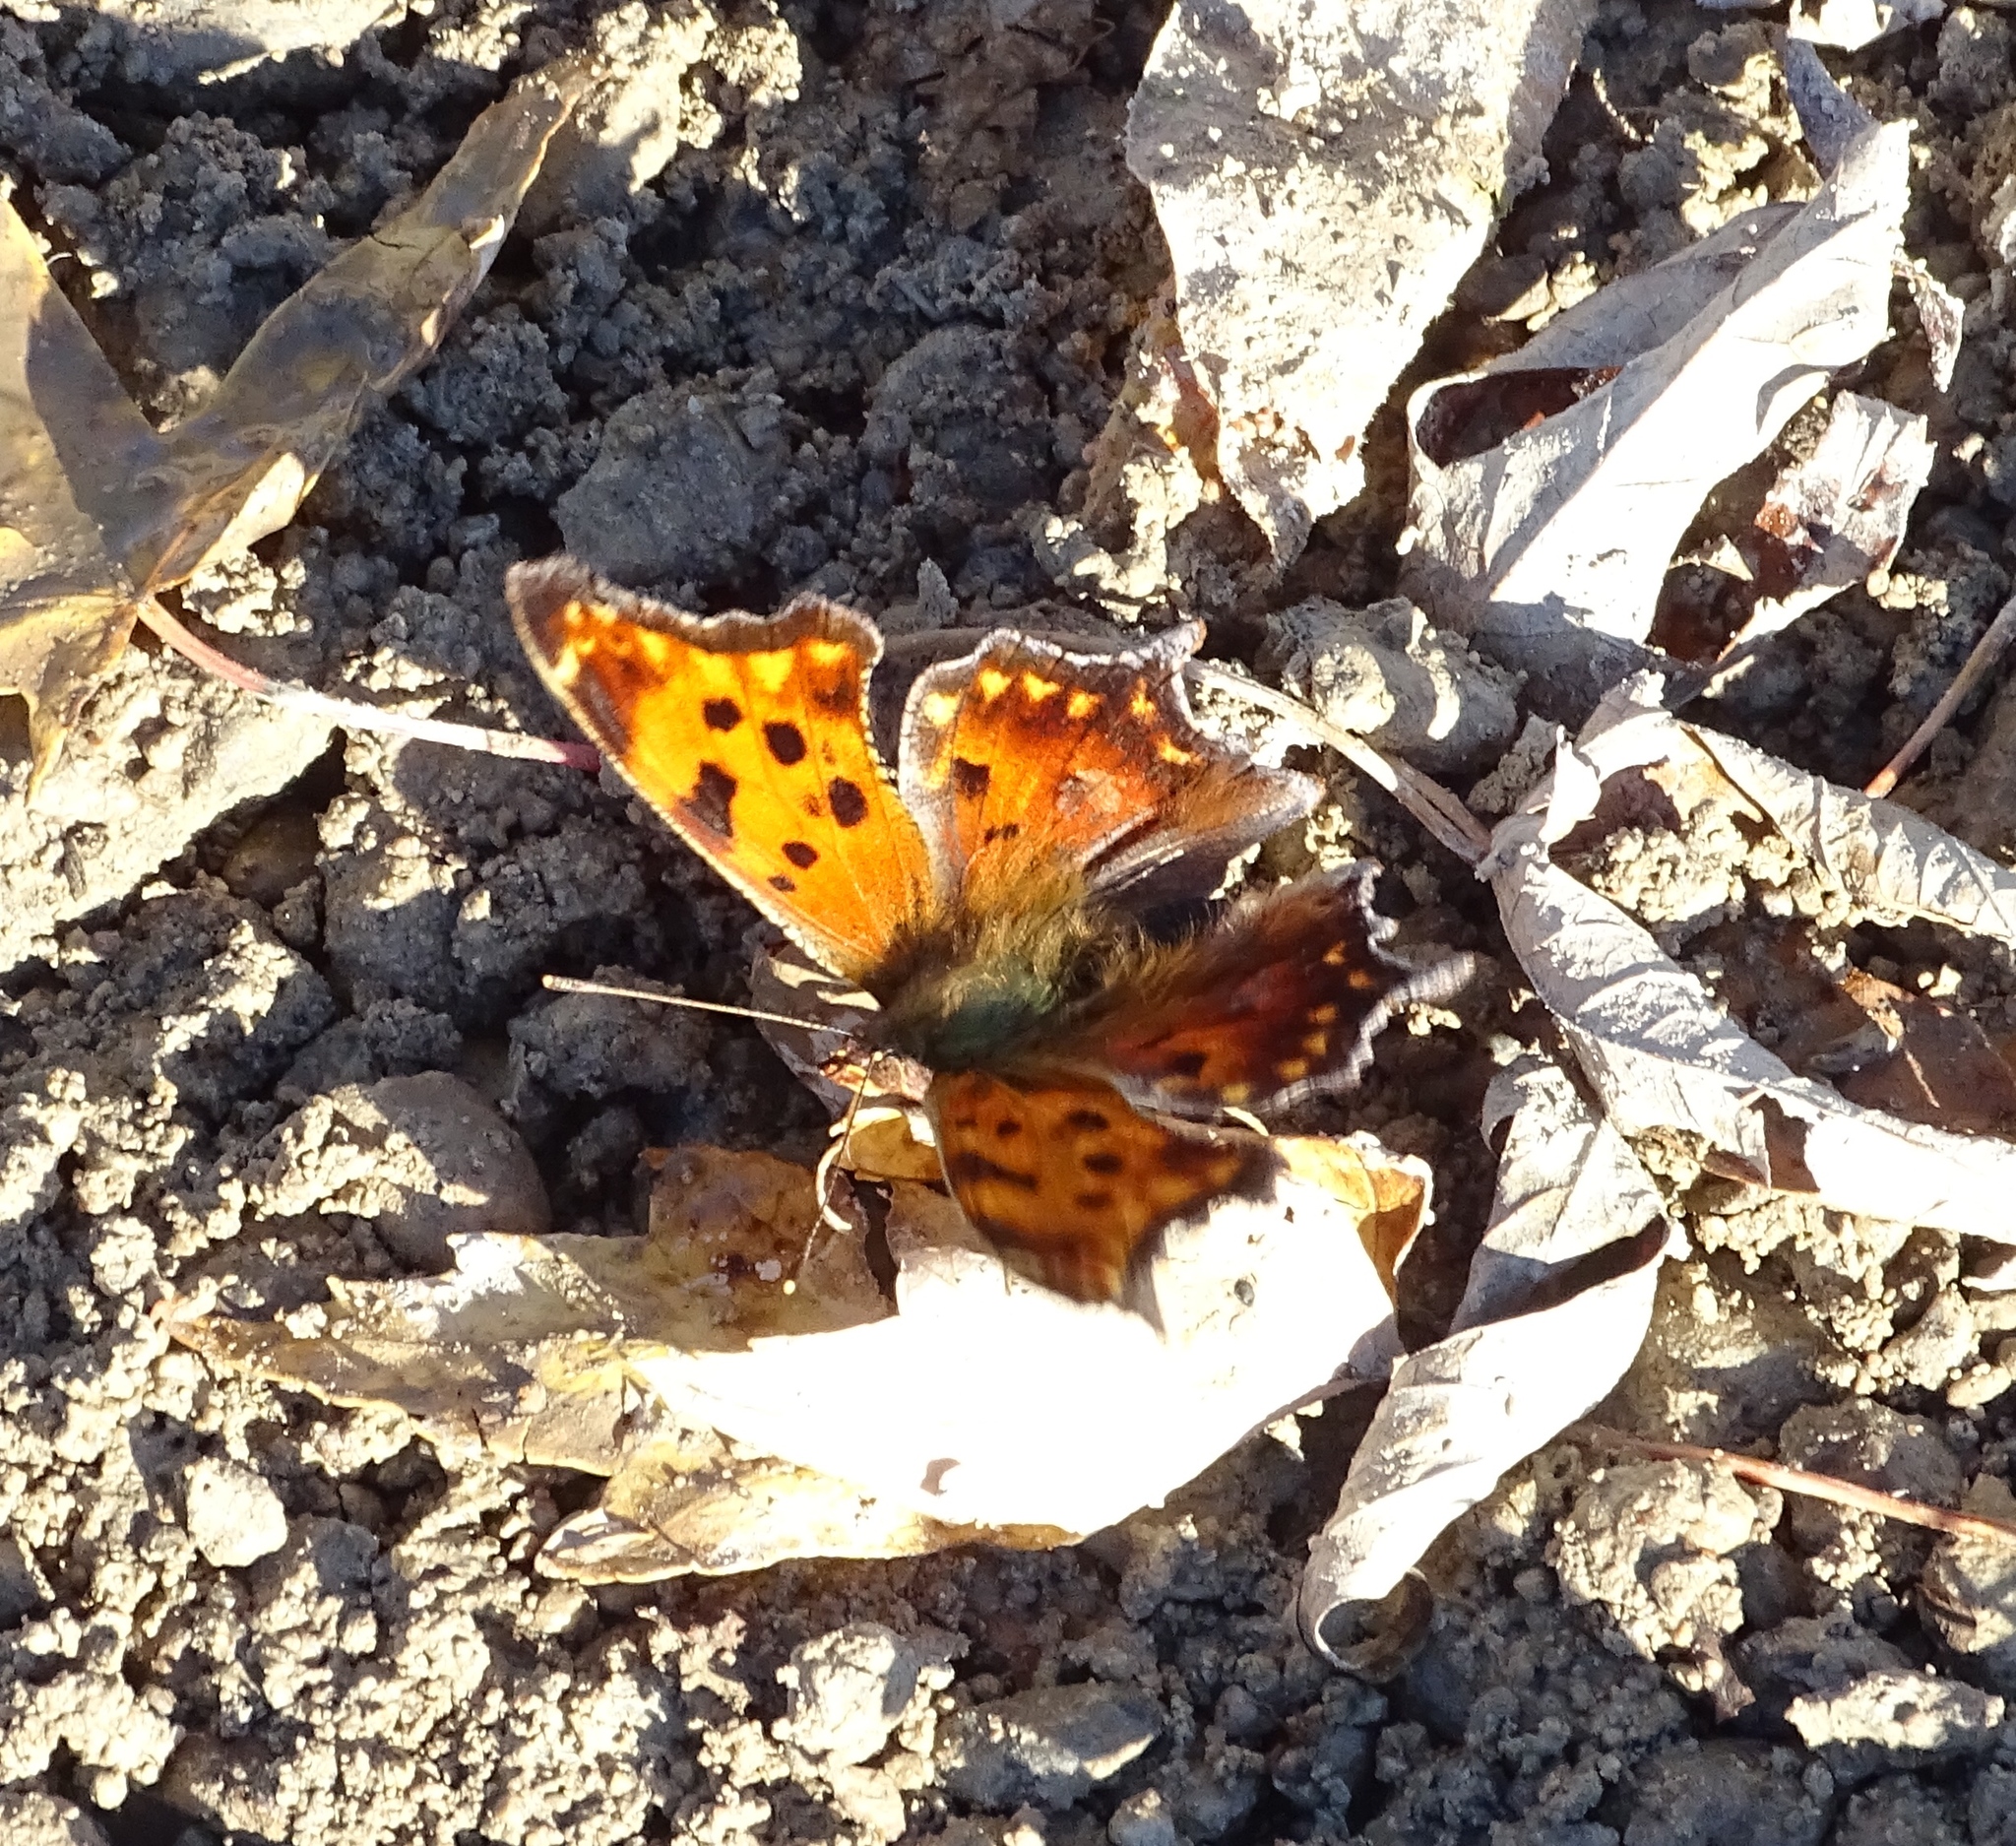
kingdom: Animalia
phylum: Arthropoda
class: Insecta
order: Lepidoptera
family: Nymphalidae
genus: Polygonia
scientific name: Polygonia comma
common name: Eastern comma
